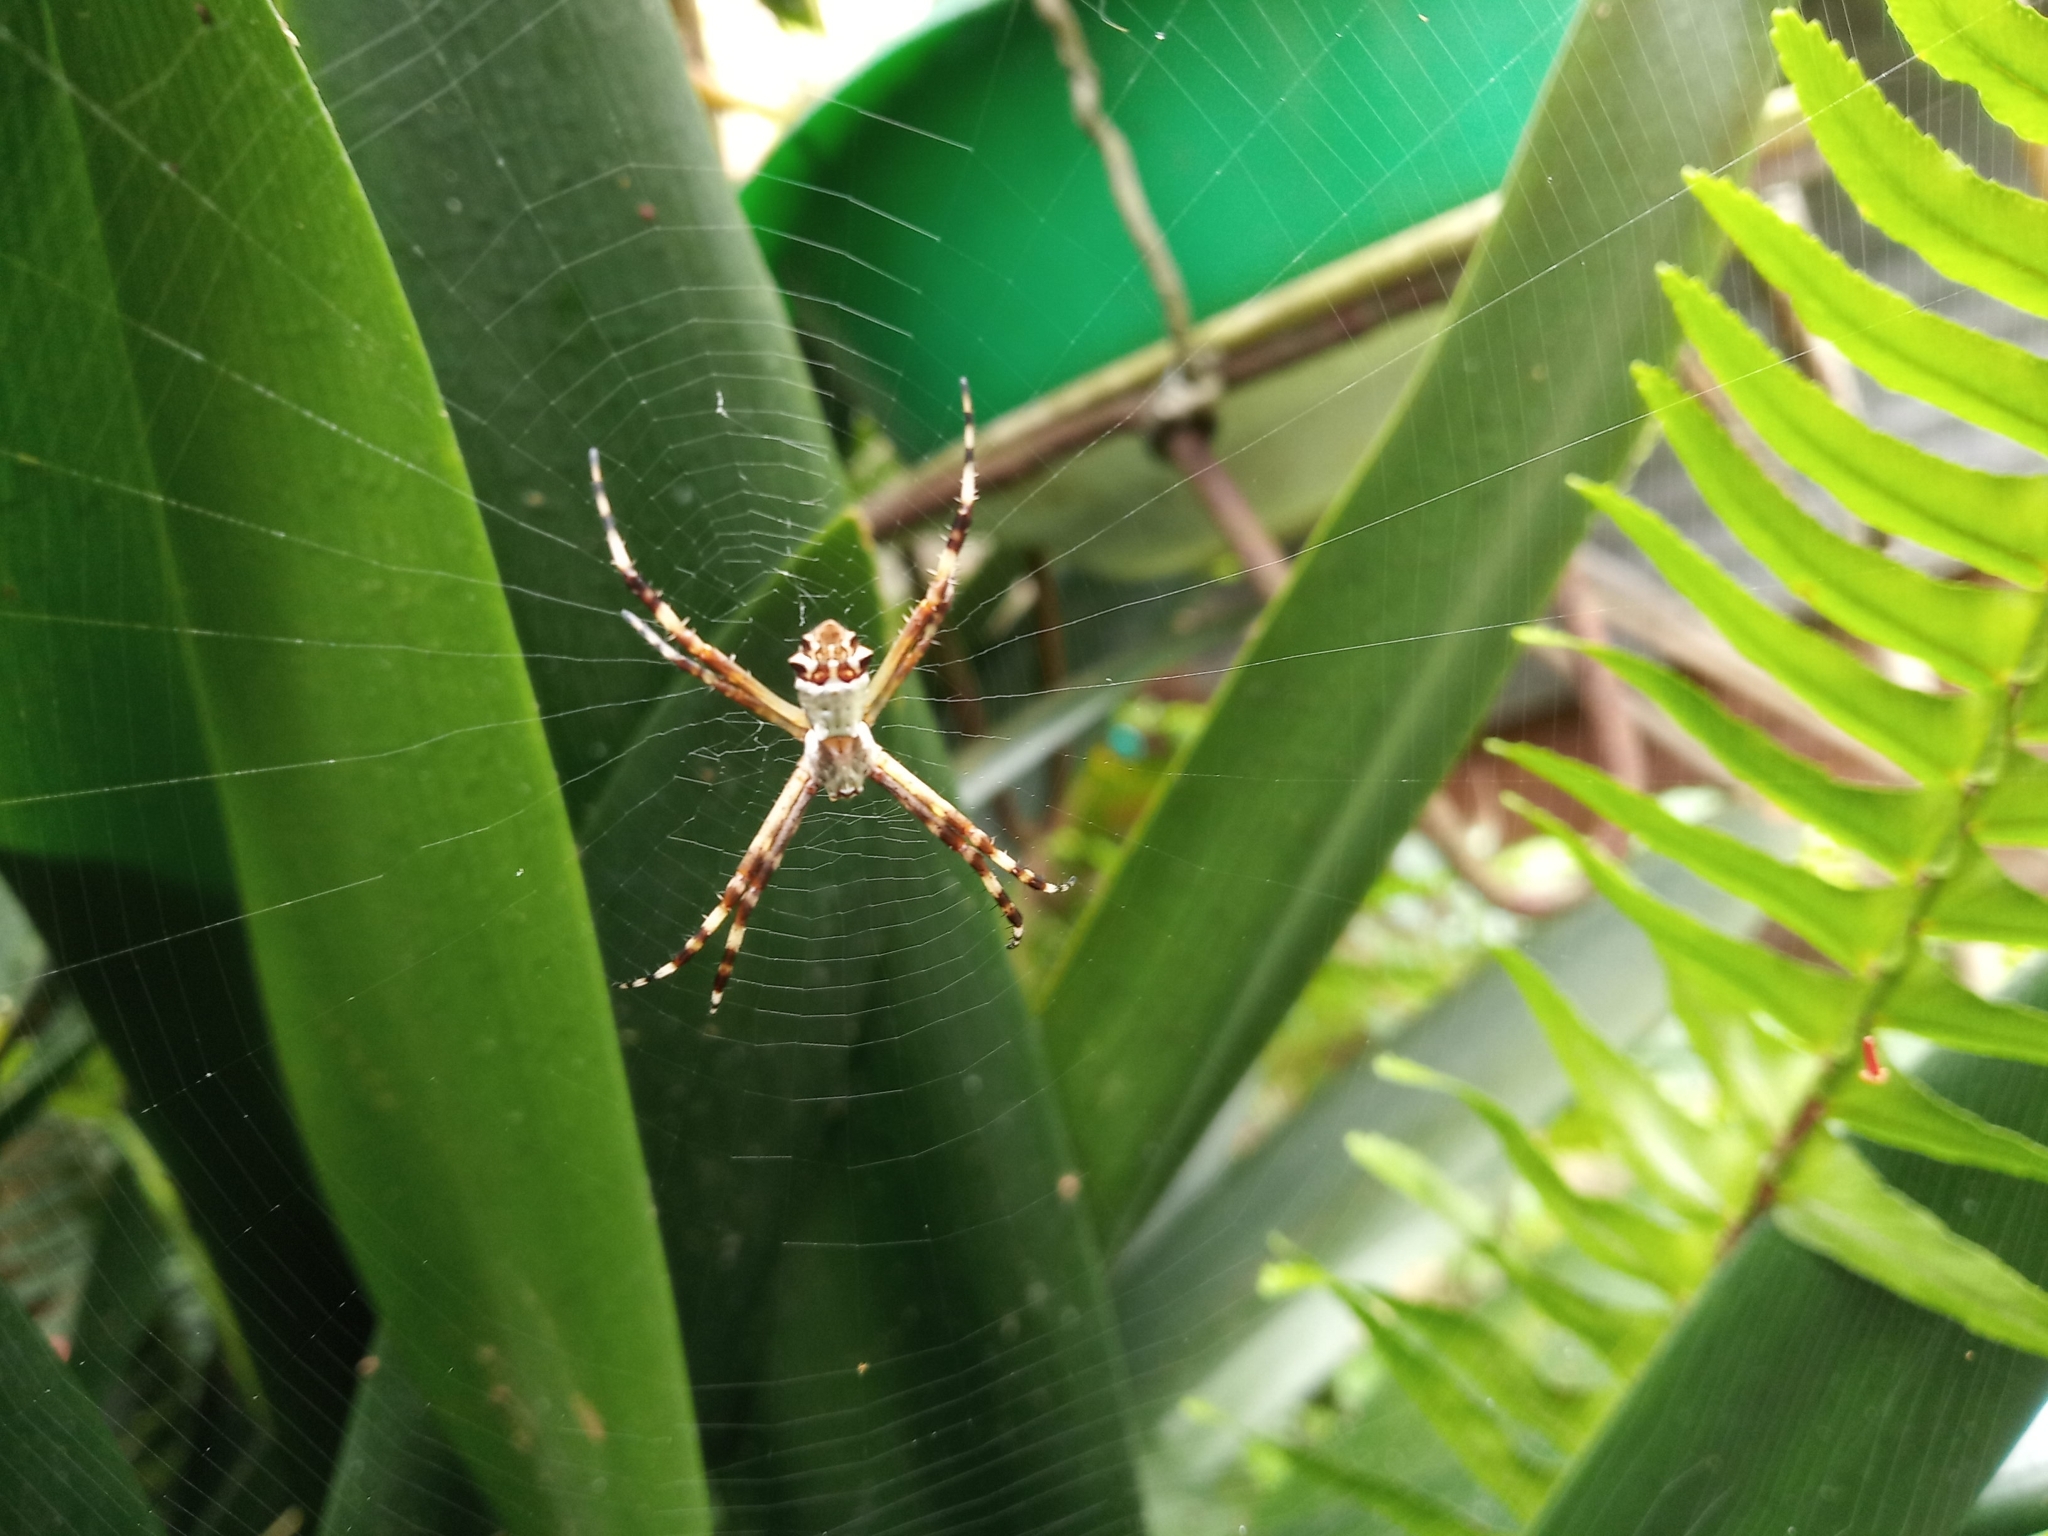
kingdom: Animalia
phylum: Arthropoda
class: Arachnida
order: Araneae
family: Araneidae
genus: Argiope
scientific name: Argiope argentata
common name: Orb weavers
